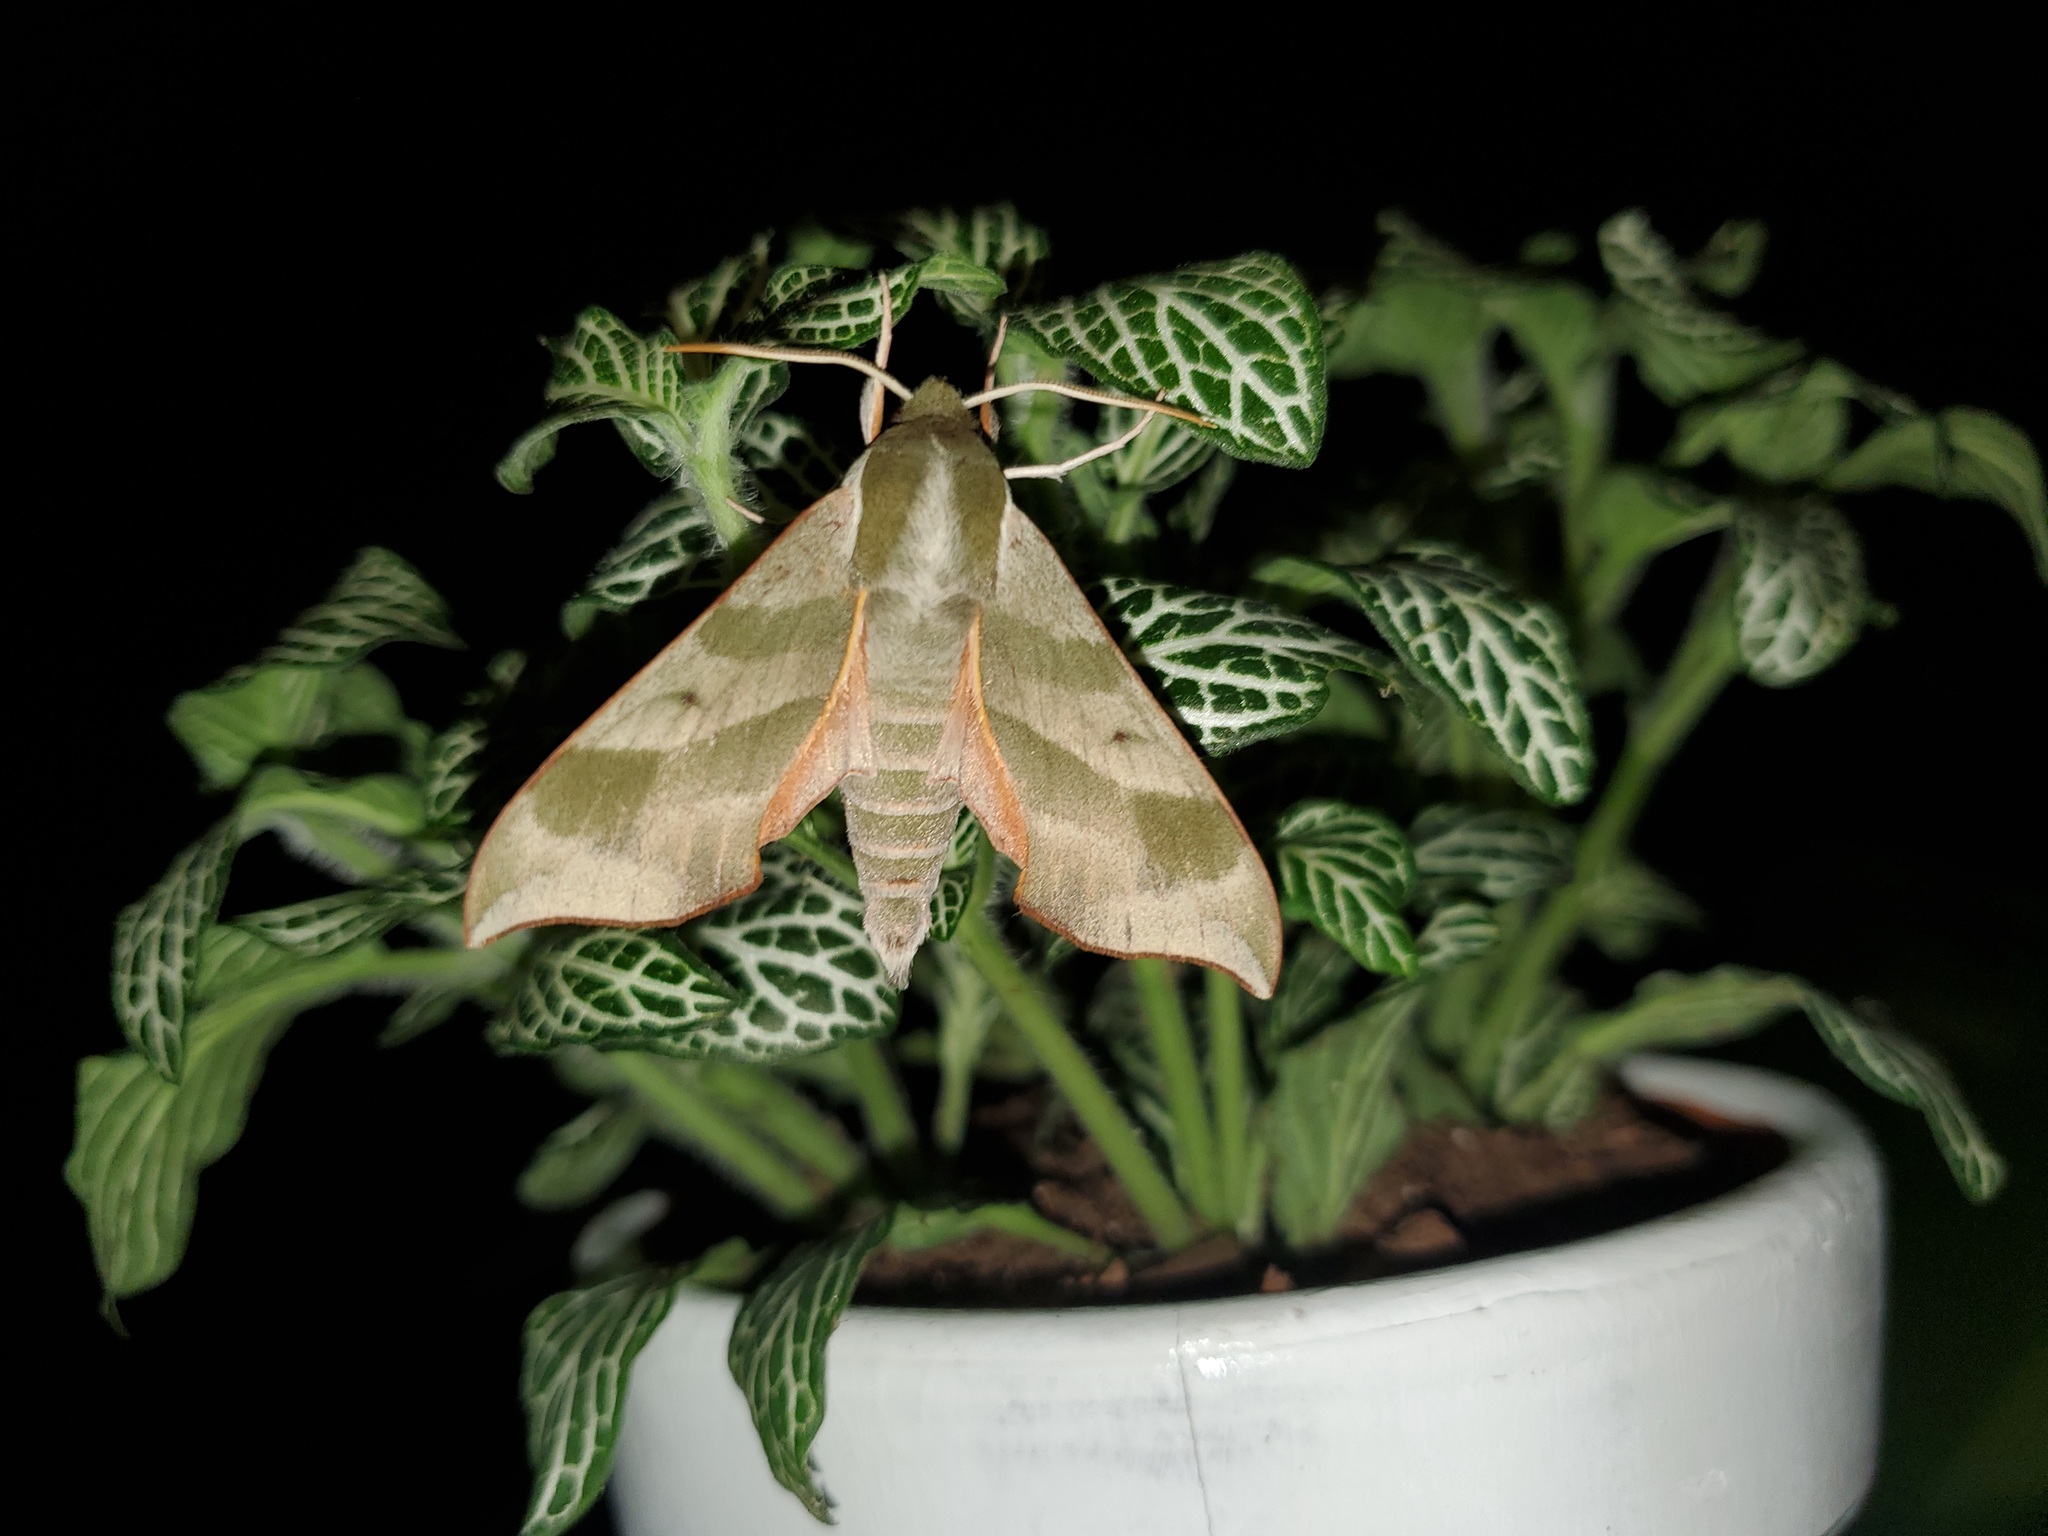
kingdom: Animalia
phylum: Arthropoda
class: Insecta
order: Lepidoptera
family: Sphingidae
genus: Darapsa
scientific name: Darapsa myron
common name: Hog sphinx
